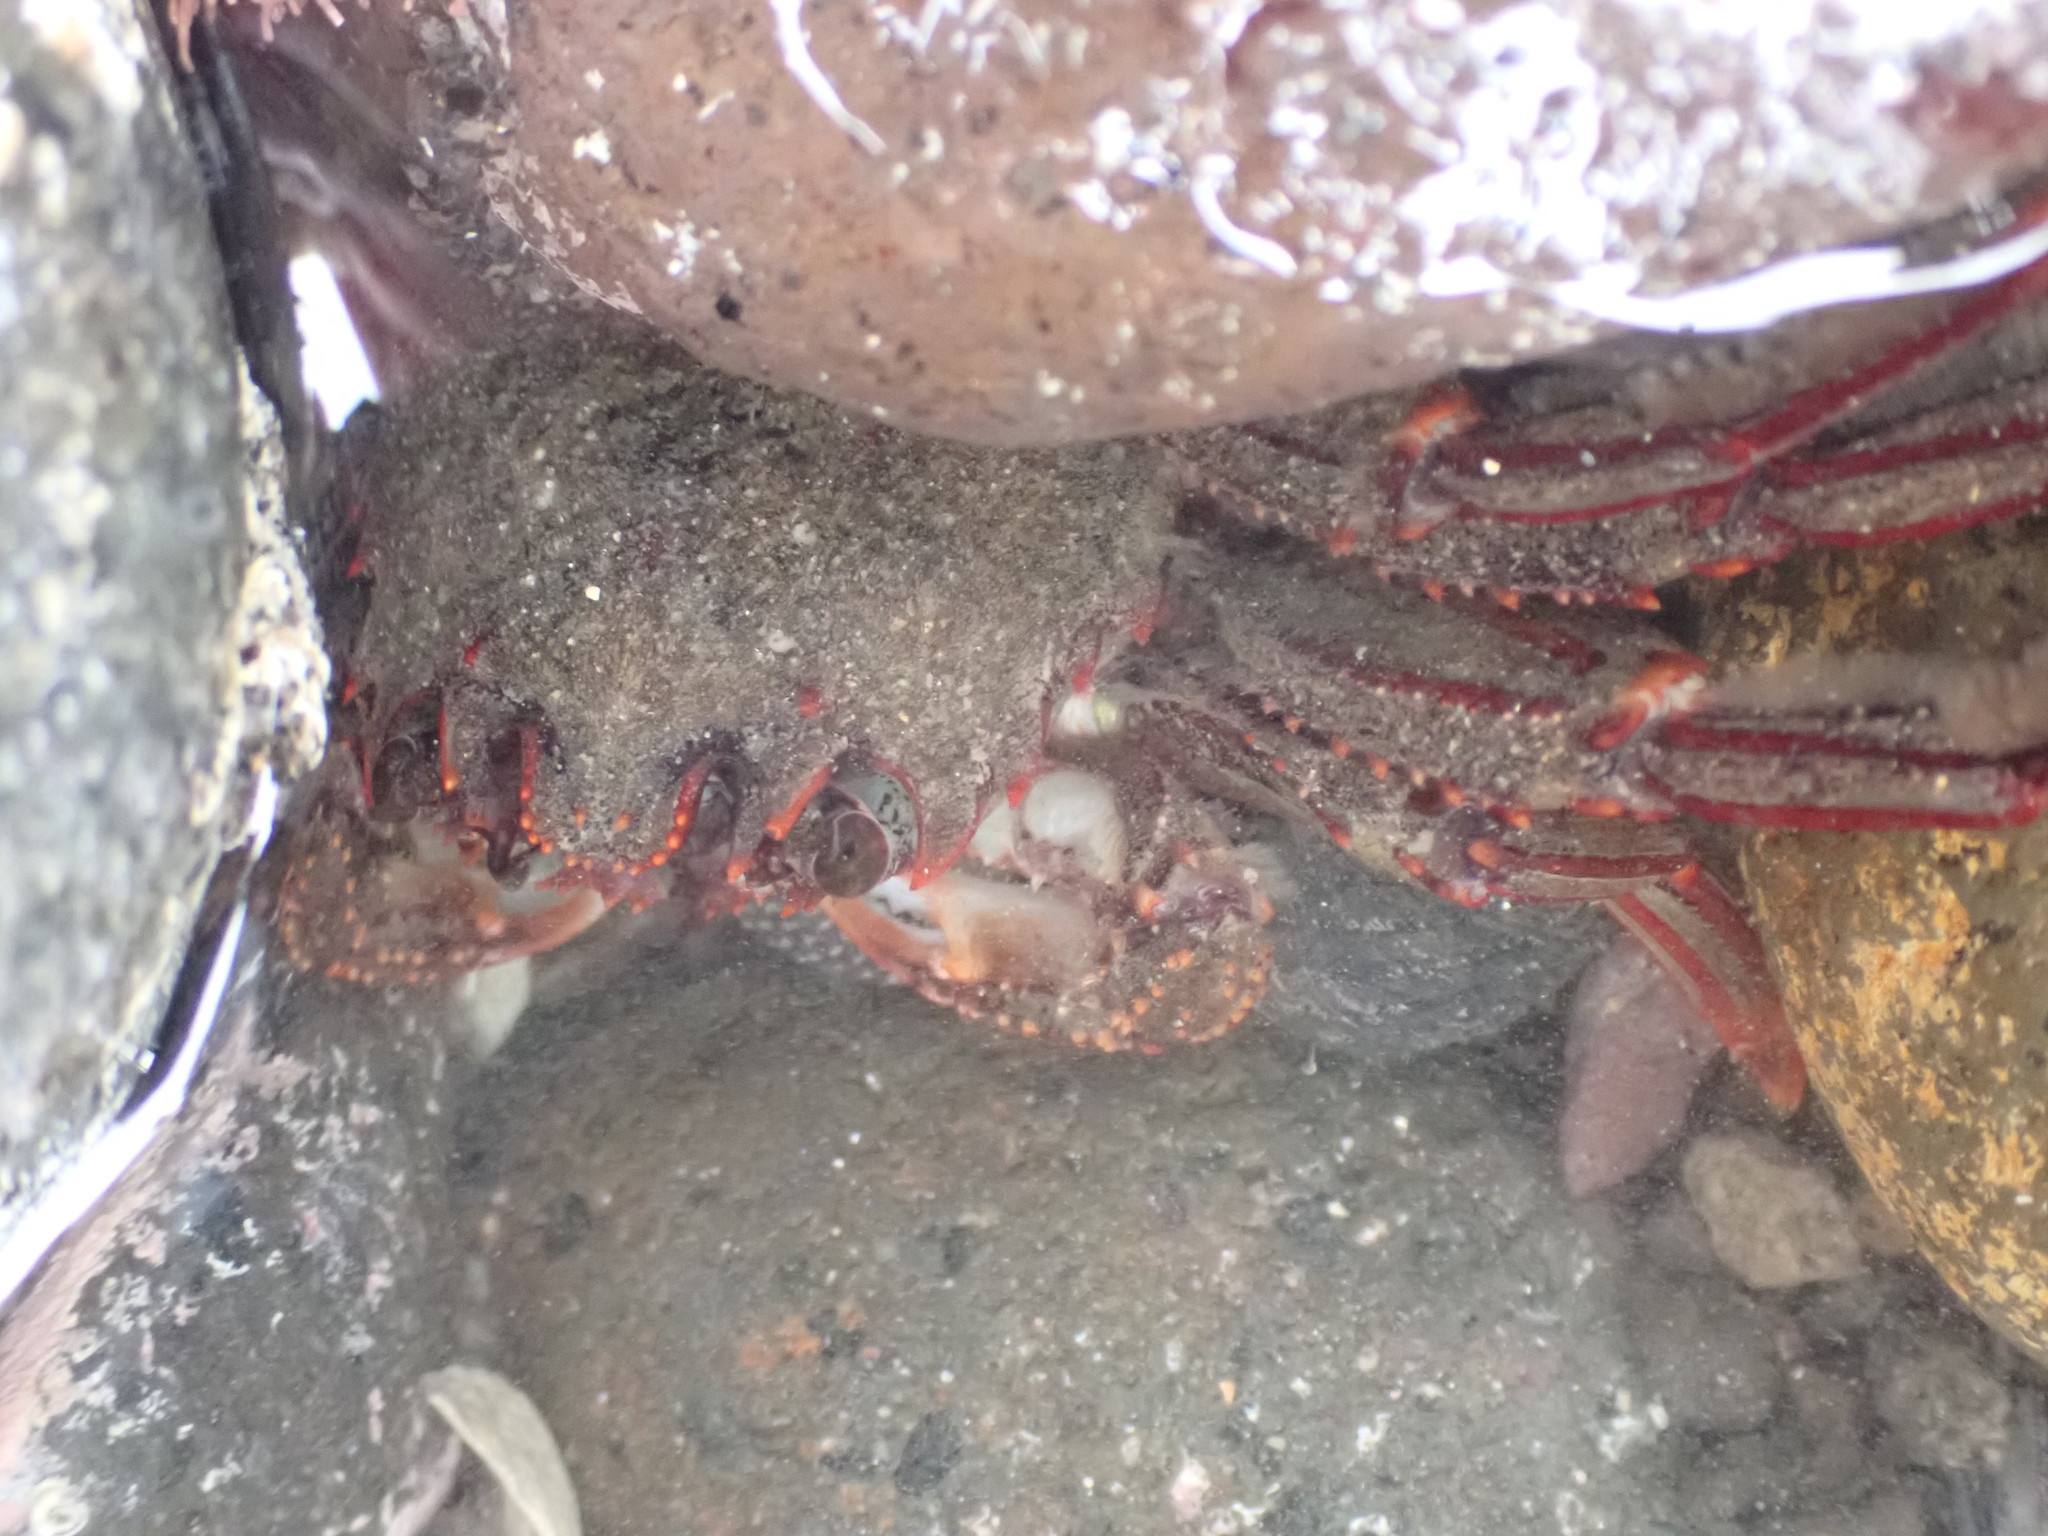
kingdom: Animalia
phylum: Arthropoda
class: Malacostraca
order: Decapoda
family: Plagusiidae
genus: Guinusia
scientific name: Guinusia chabrus
